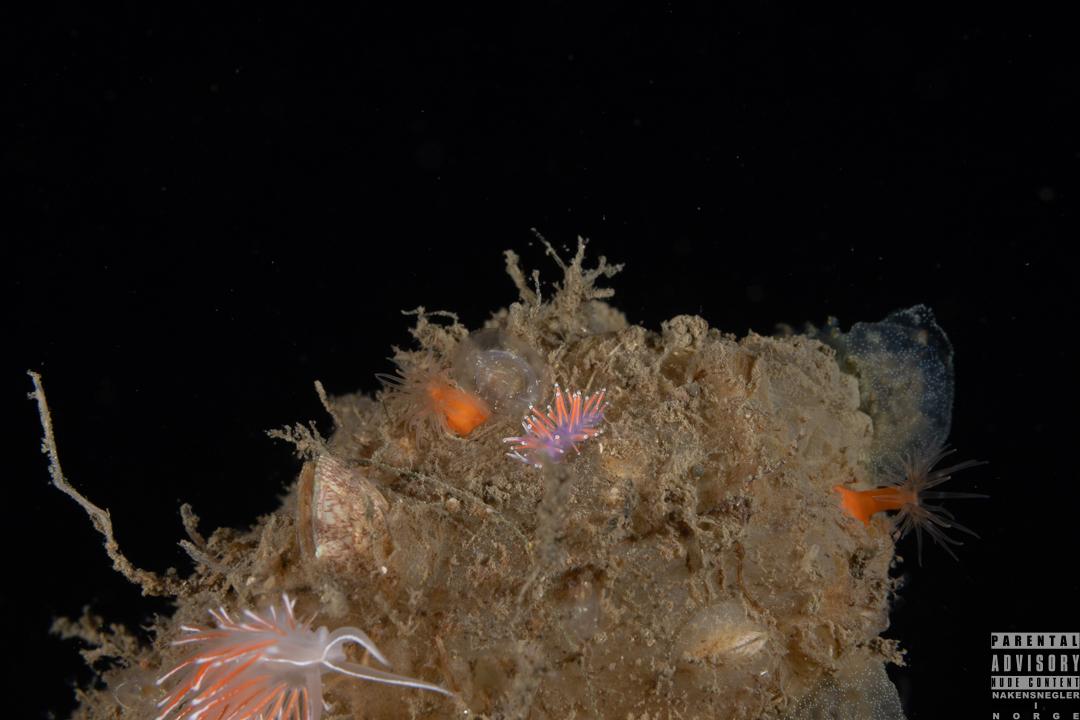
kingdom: Animalia
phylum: Mollusca
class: Gastropoda
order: Nudibranchia
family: Flabellinidae
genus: Edmundsella
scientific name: Edmundsella pedata
